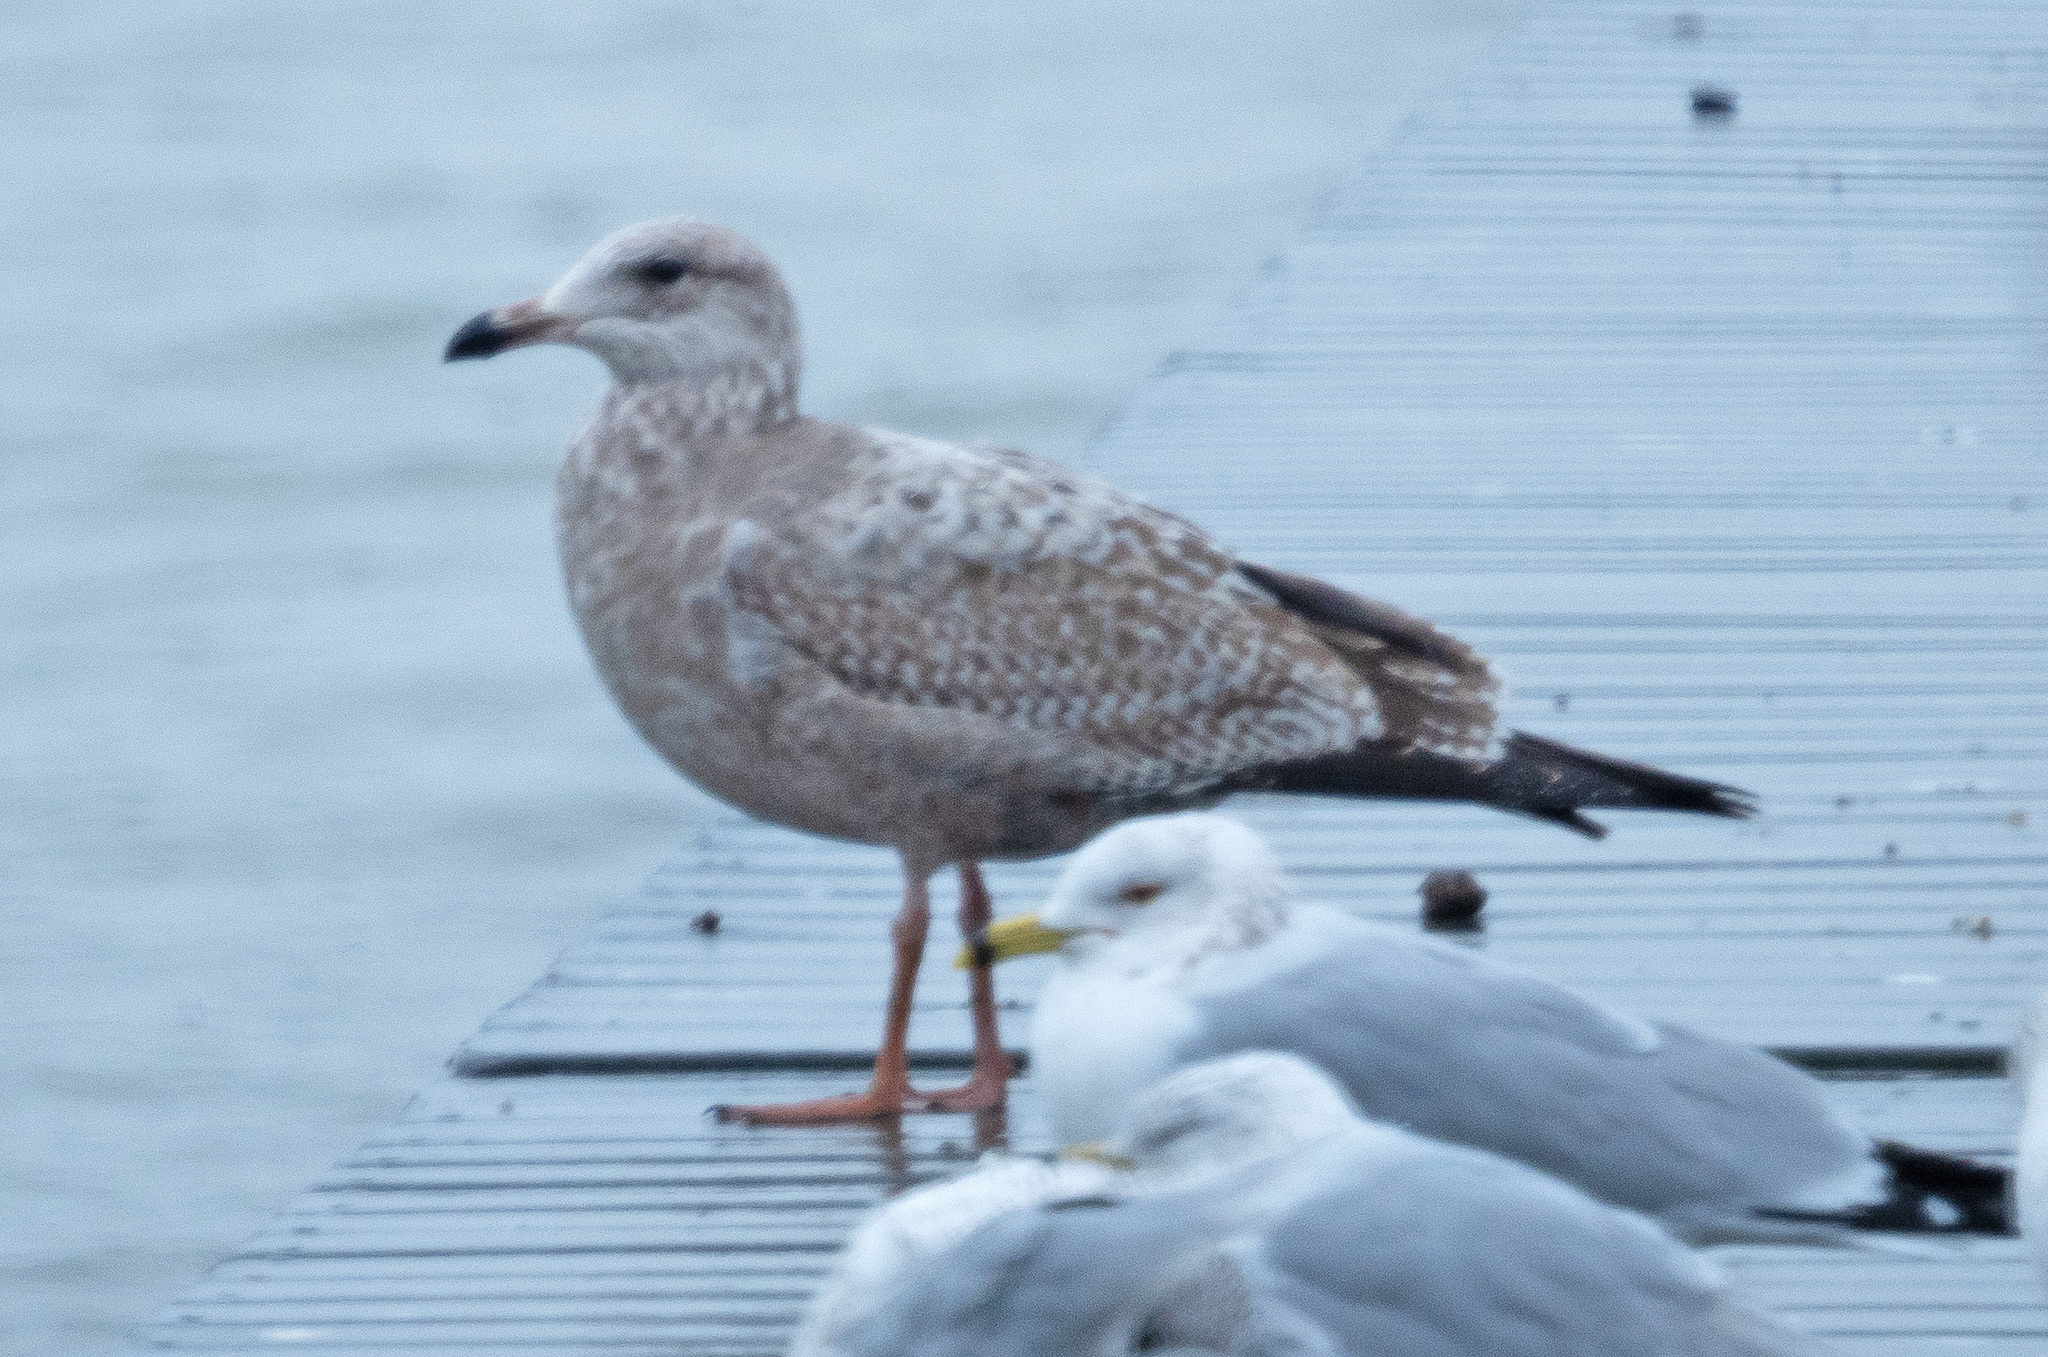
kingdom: Animalia
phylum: Chordata
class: Aves
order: Charadriiformes
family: Laridae
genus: Larus
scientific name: Larus argentatus
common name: Herring gull
